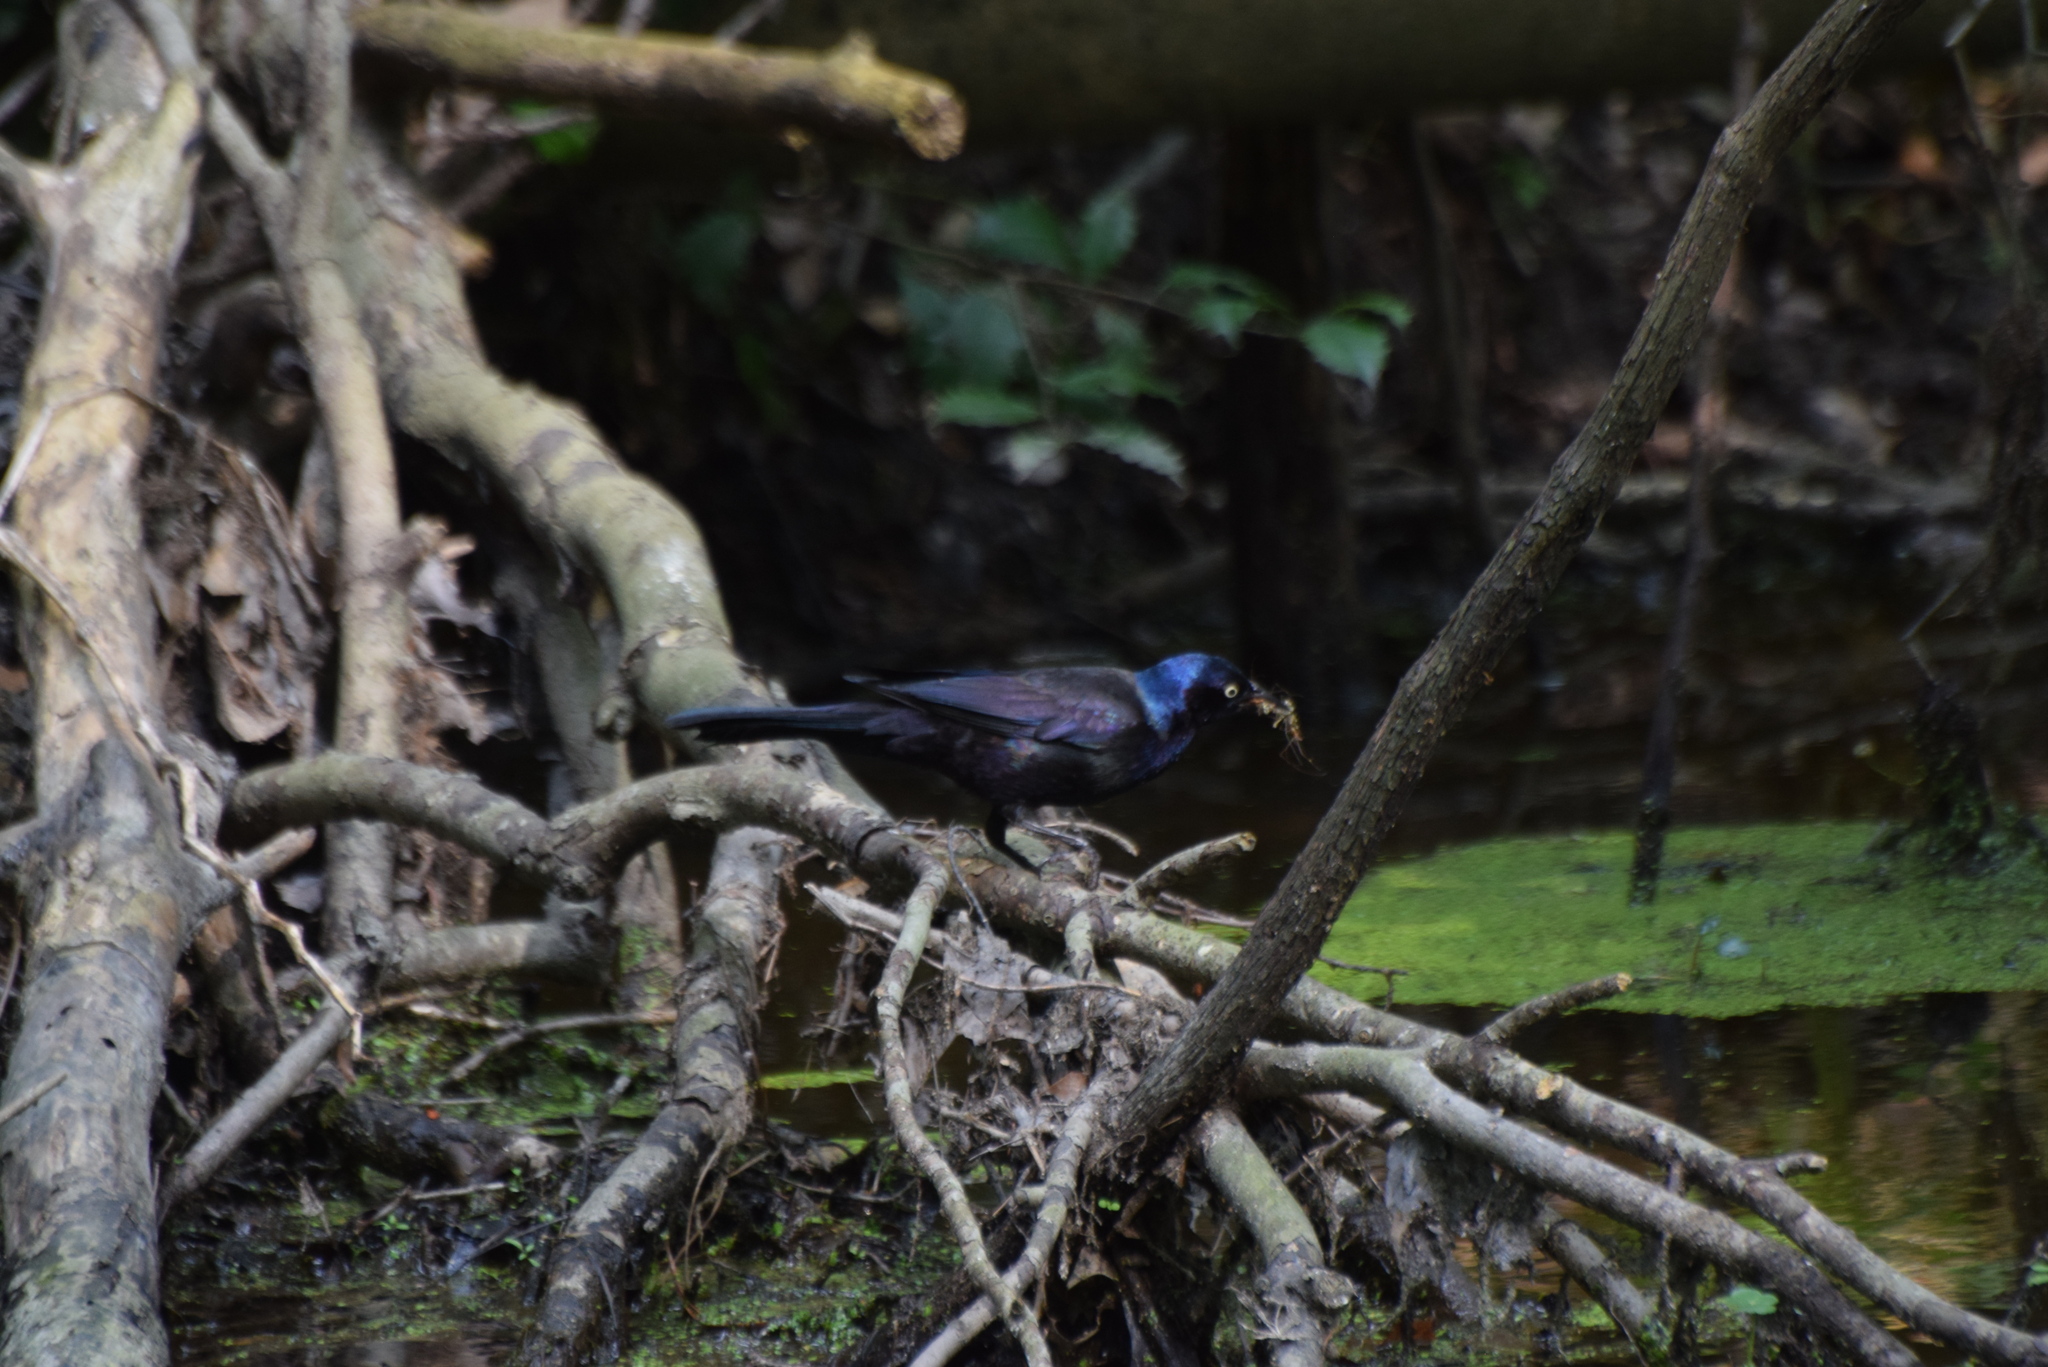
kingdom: Animalia
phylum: Chordata
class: Aves
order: Passeriformes
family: Icteridae
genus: Quiscalus
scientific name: Quiscalus quiscula
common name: Common grackle
